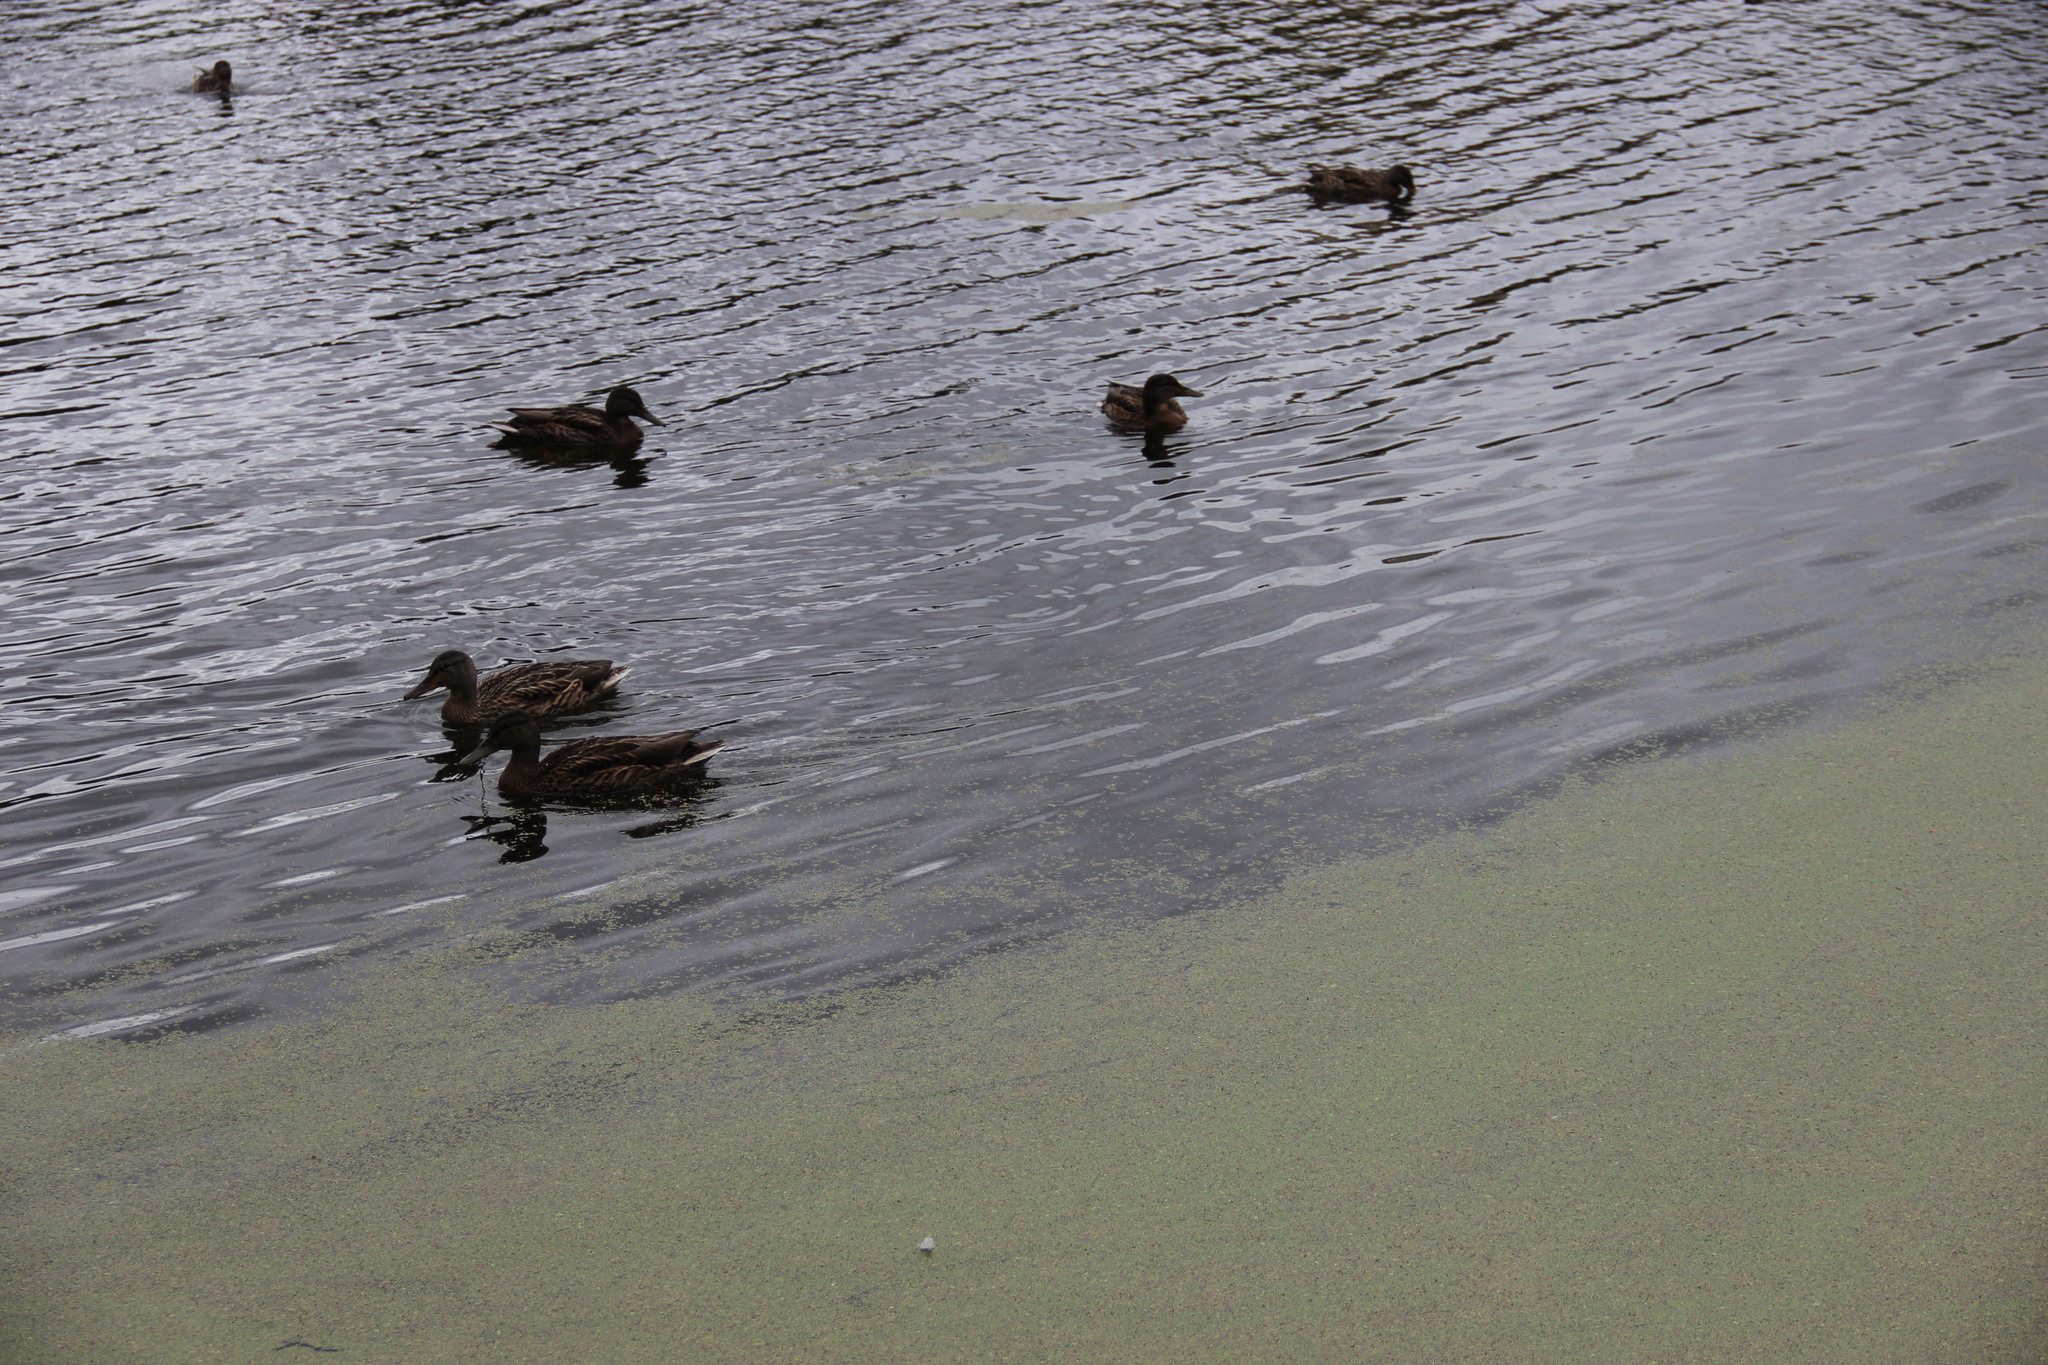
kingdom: Animalia
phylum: Chordata
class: Aves
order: Anseriformes
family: Anatidae
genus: Anas
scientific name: Anas platyrhynchos
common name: Mallard
